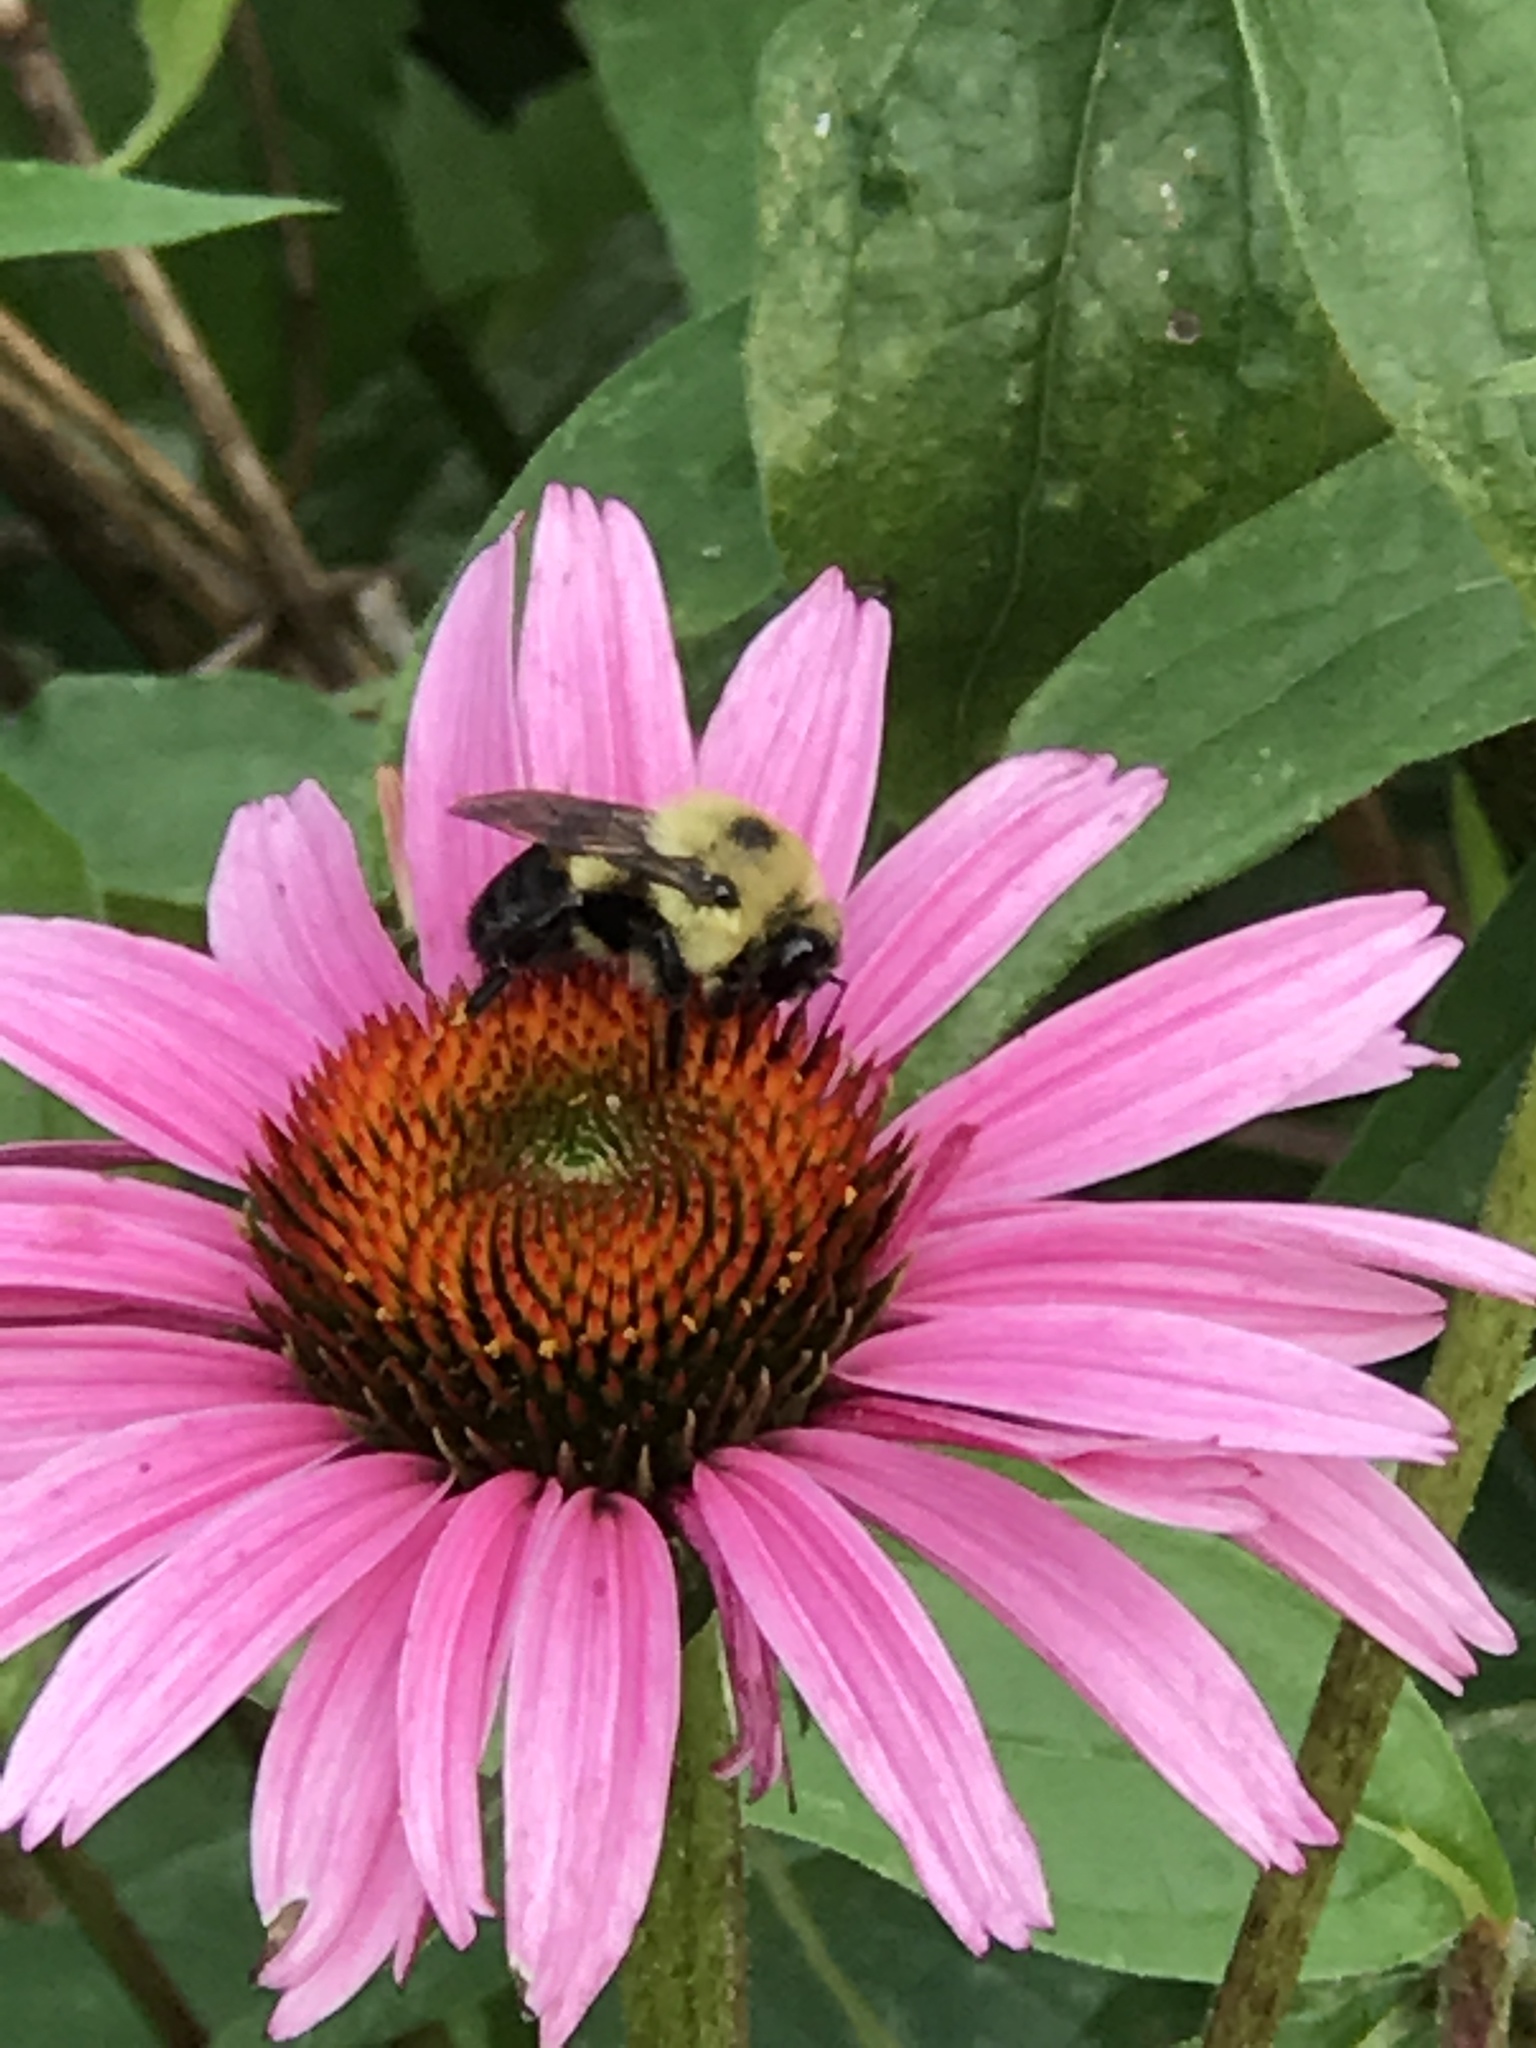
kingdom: Animalia
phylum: Arthropoda
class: Insecta
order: Hymenoptera
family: Apidae
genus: Bombus
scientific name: Bombus griseocollis
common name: Brown-belted bumble bee
